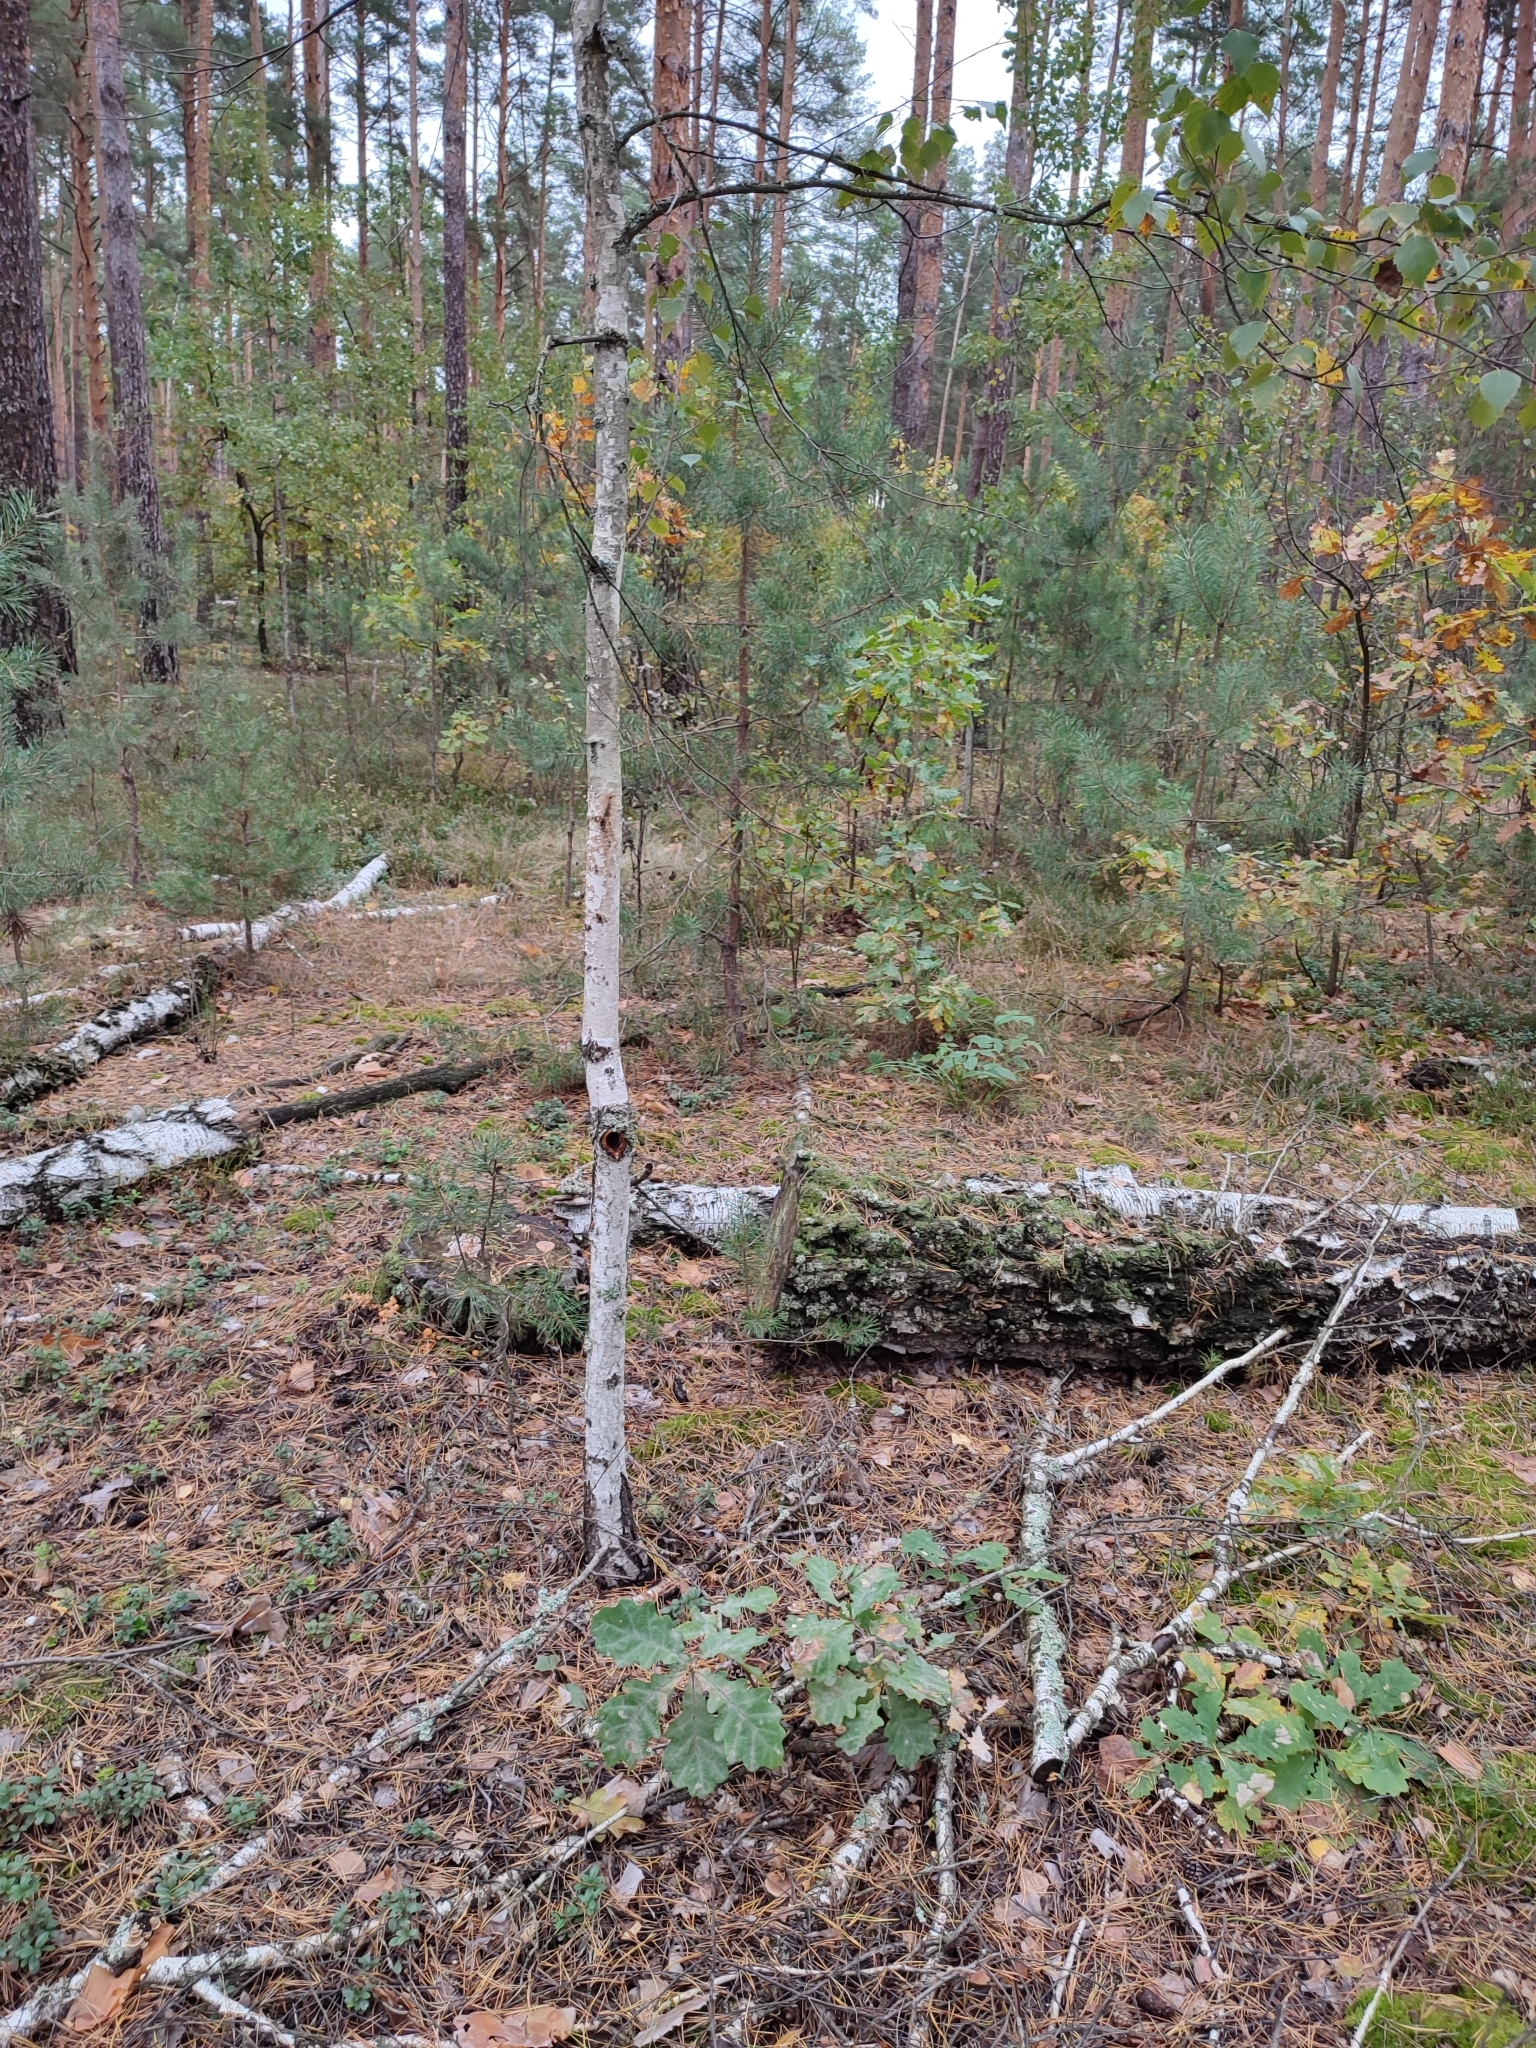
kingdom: Plantae
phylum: Tracheophyta
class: Magnoliopsida
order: Fagales
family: Fagaceae
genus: Quercus
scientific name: Quercus robur
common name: Pedunculate oak
